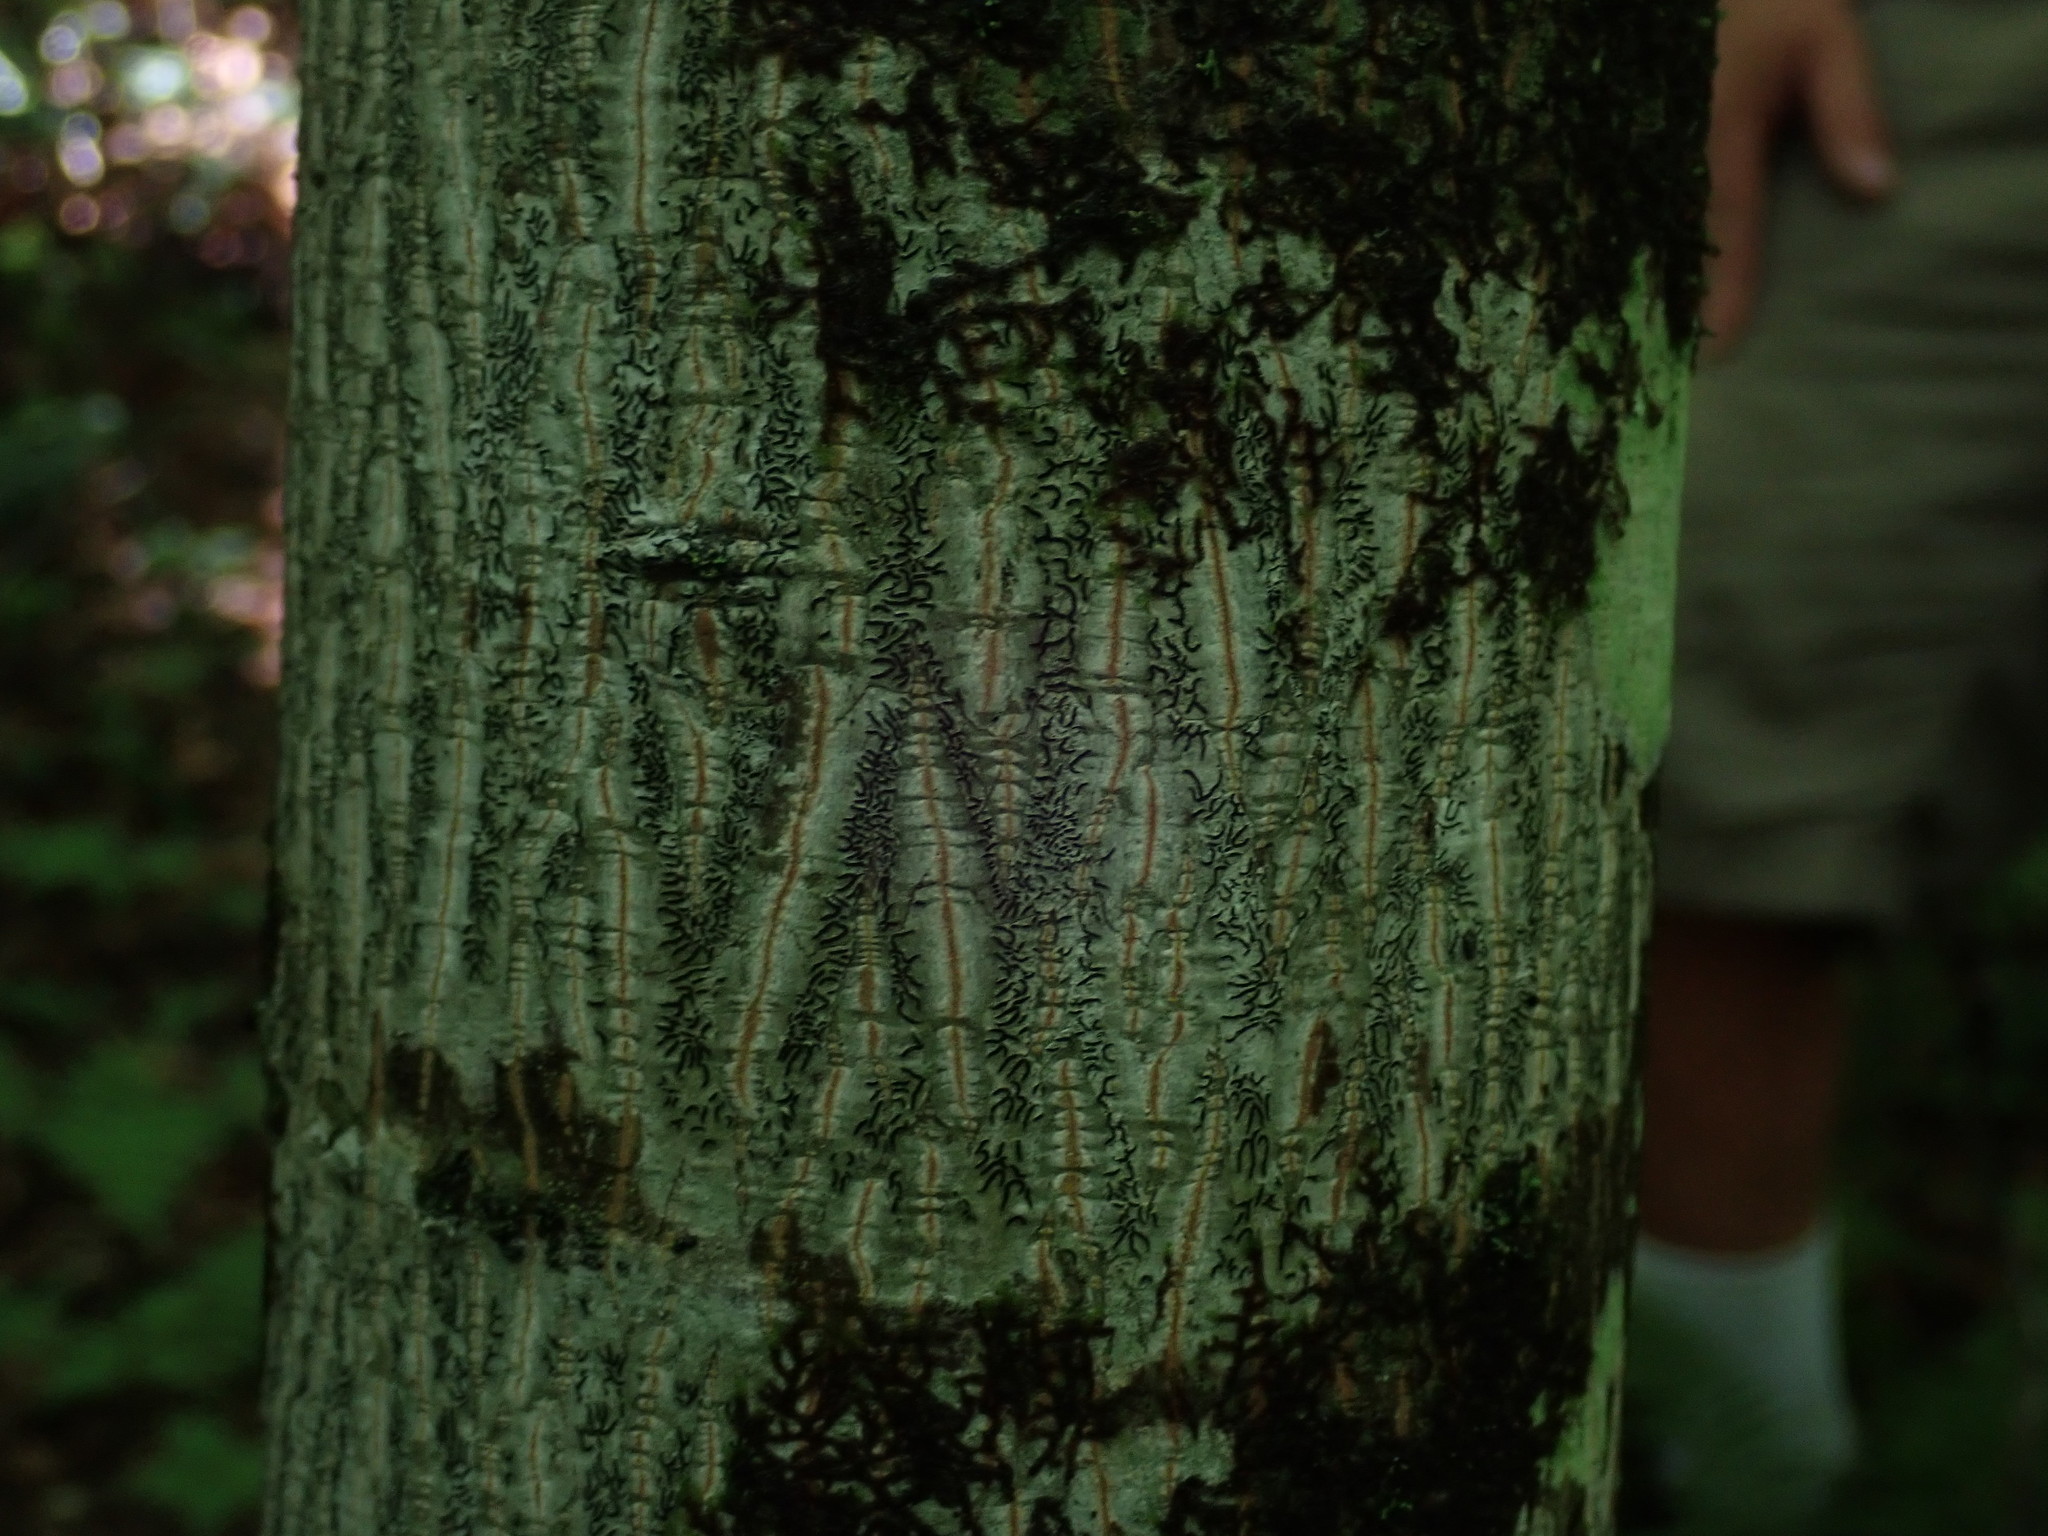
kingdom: Plantae
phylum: Tracheophyta
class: Magnoliopsida
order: Sapindales
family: Sapindaceae
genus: Acer
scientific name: Acer pensylvanicum
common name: Moosewood
